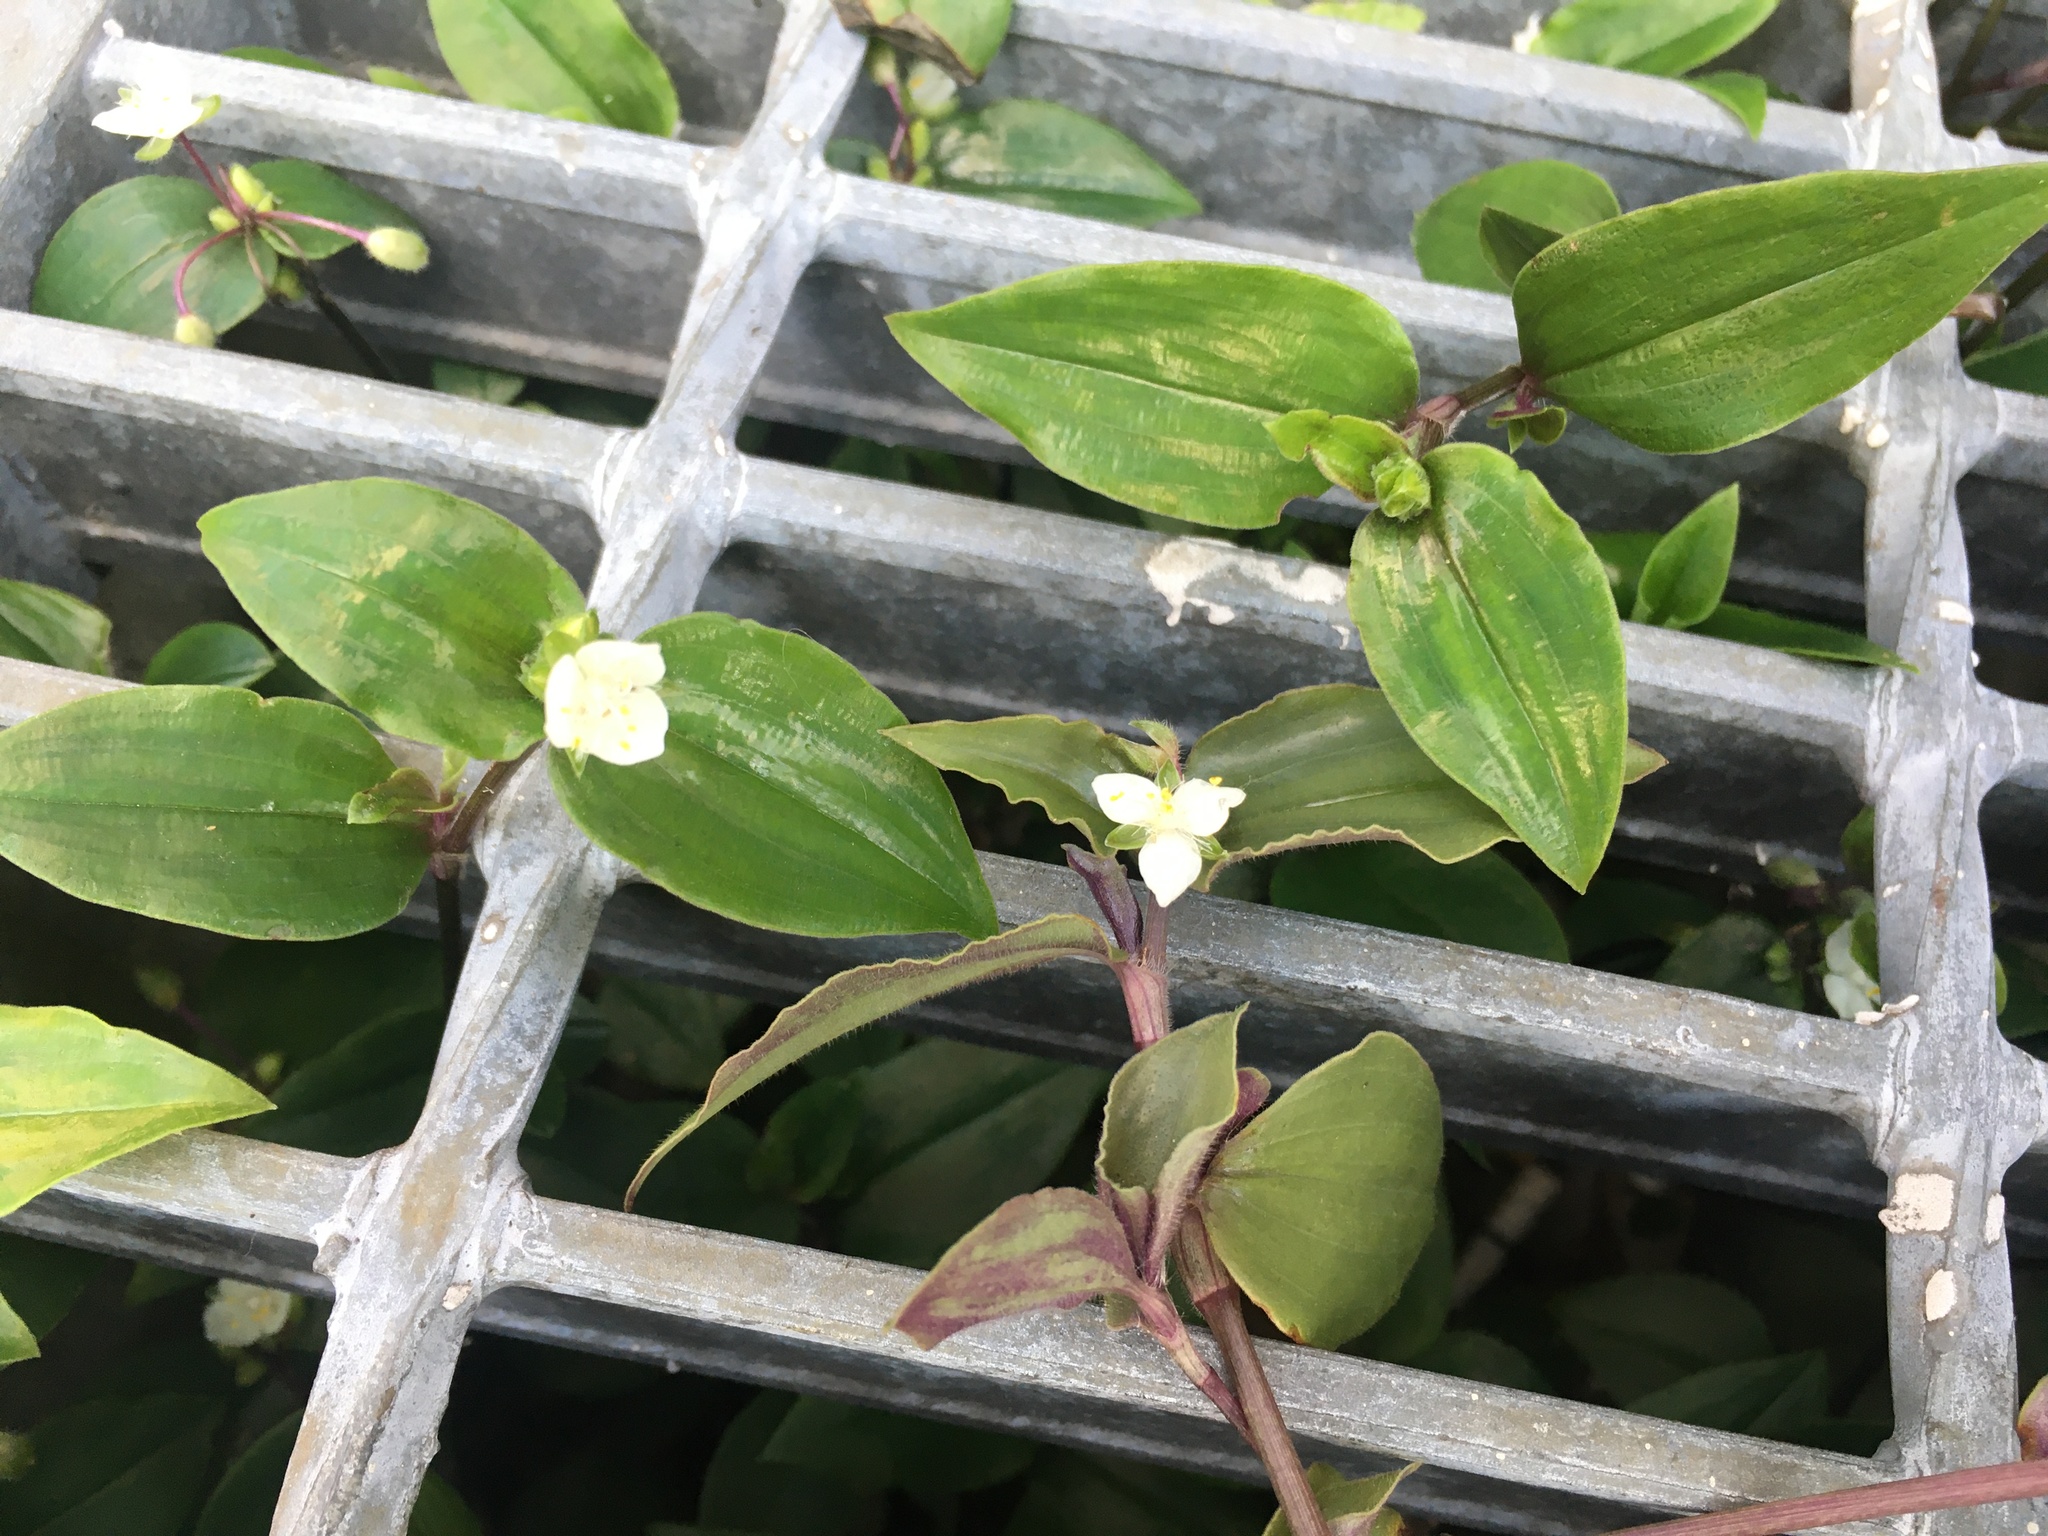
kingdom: Plantae
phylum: Tracheophyta
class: Liliopsida
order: Commelinales
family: Commelinaceae
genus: Tradescantia
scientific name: Tradescantia fluminensis
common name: Wandering-jew
